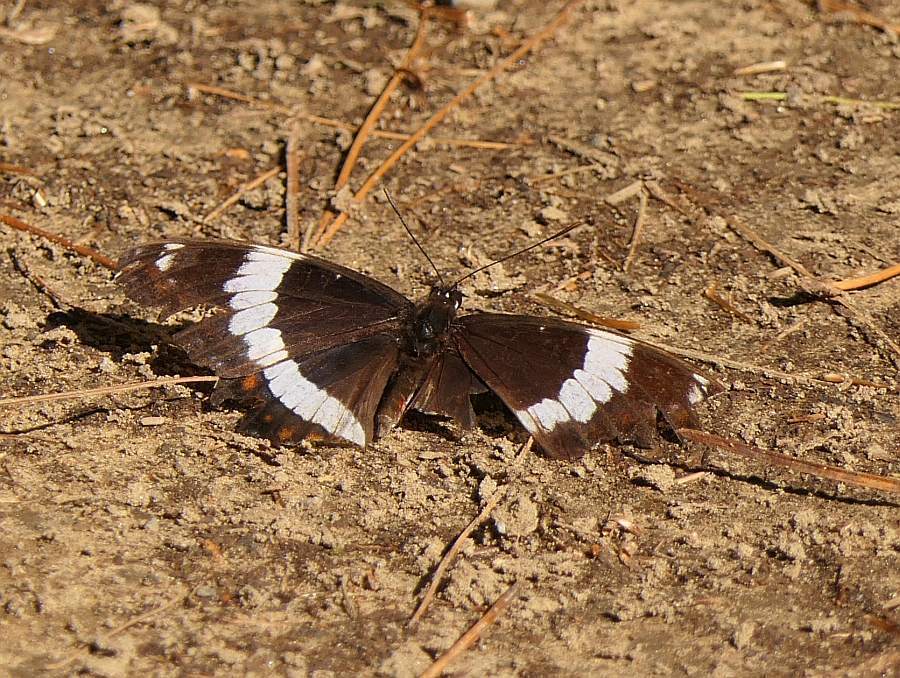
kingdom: Animalia
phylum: Arthropoda
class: Insecta
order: Lepidoptera
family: Nymphalidae
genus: Limenitis
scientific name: Limenitis arthemis
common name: Red-spotted admiral
